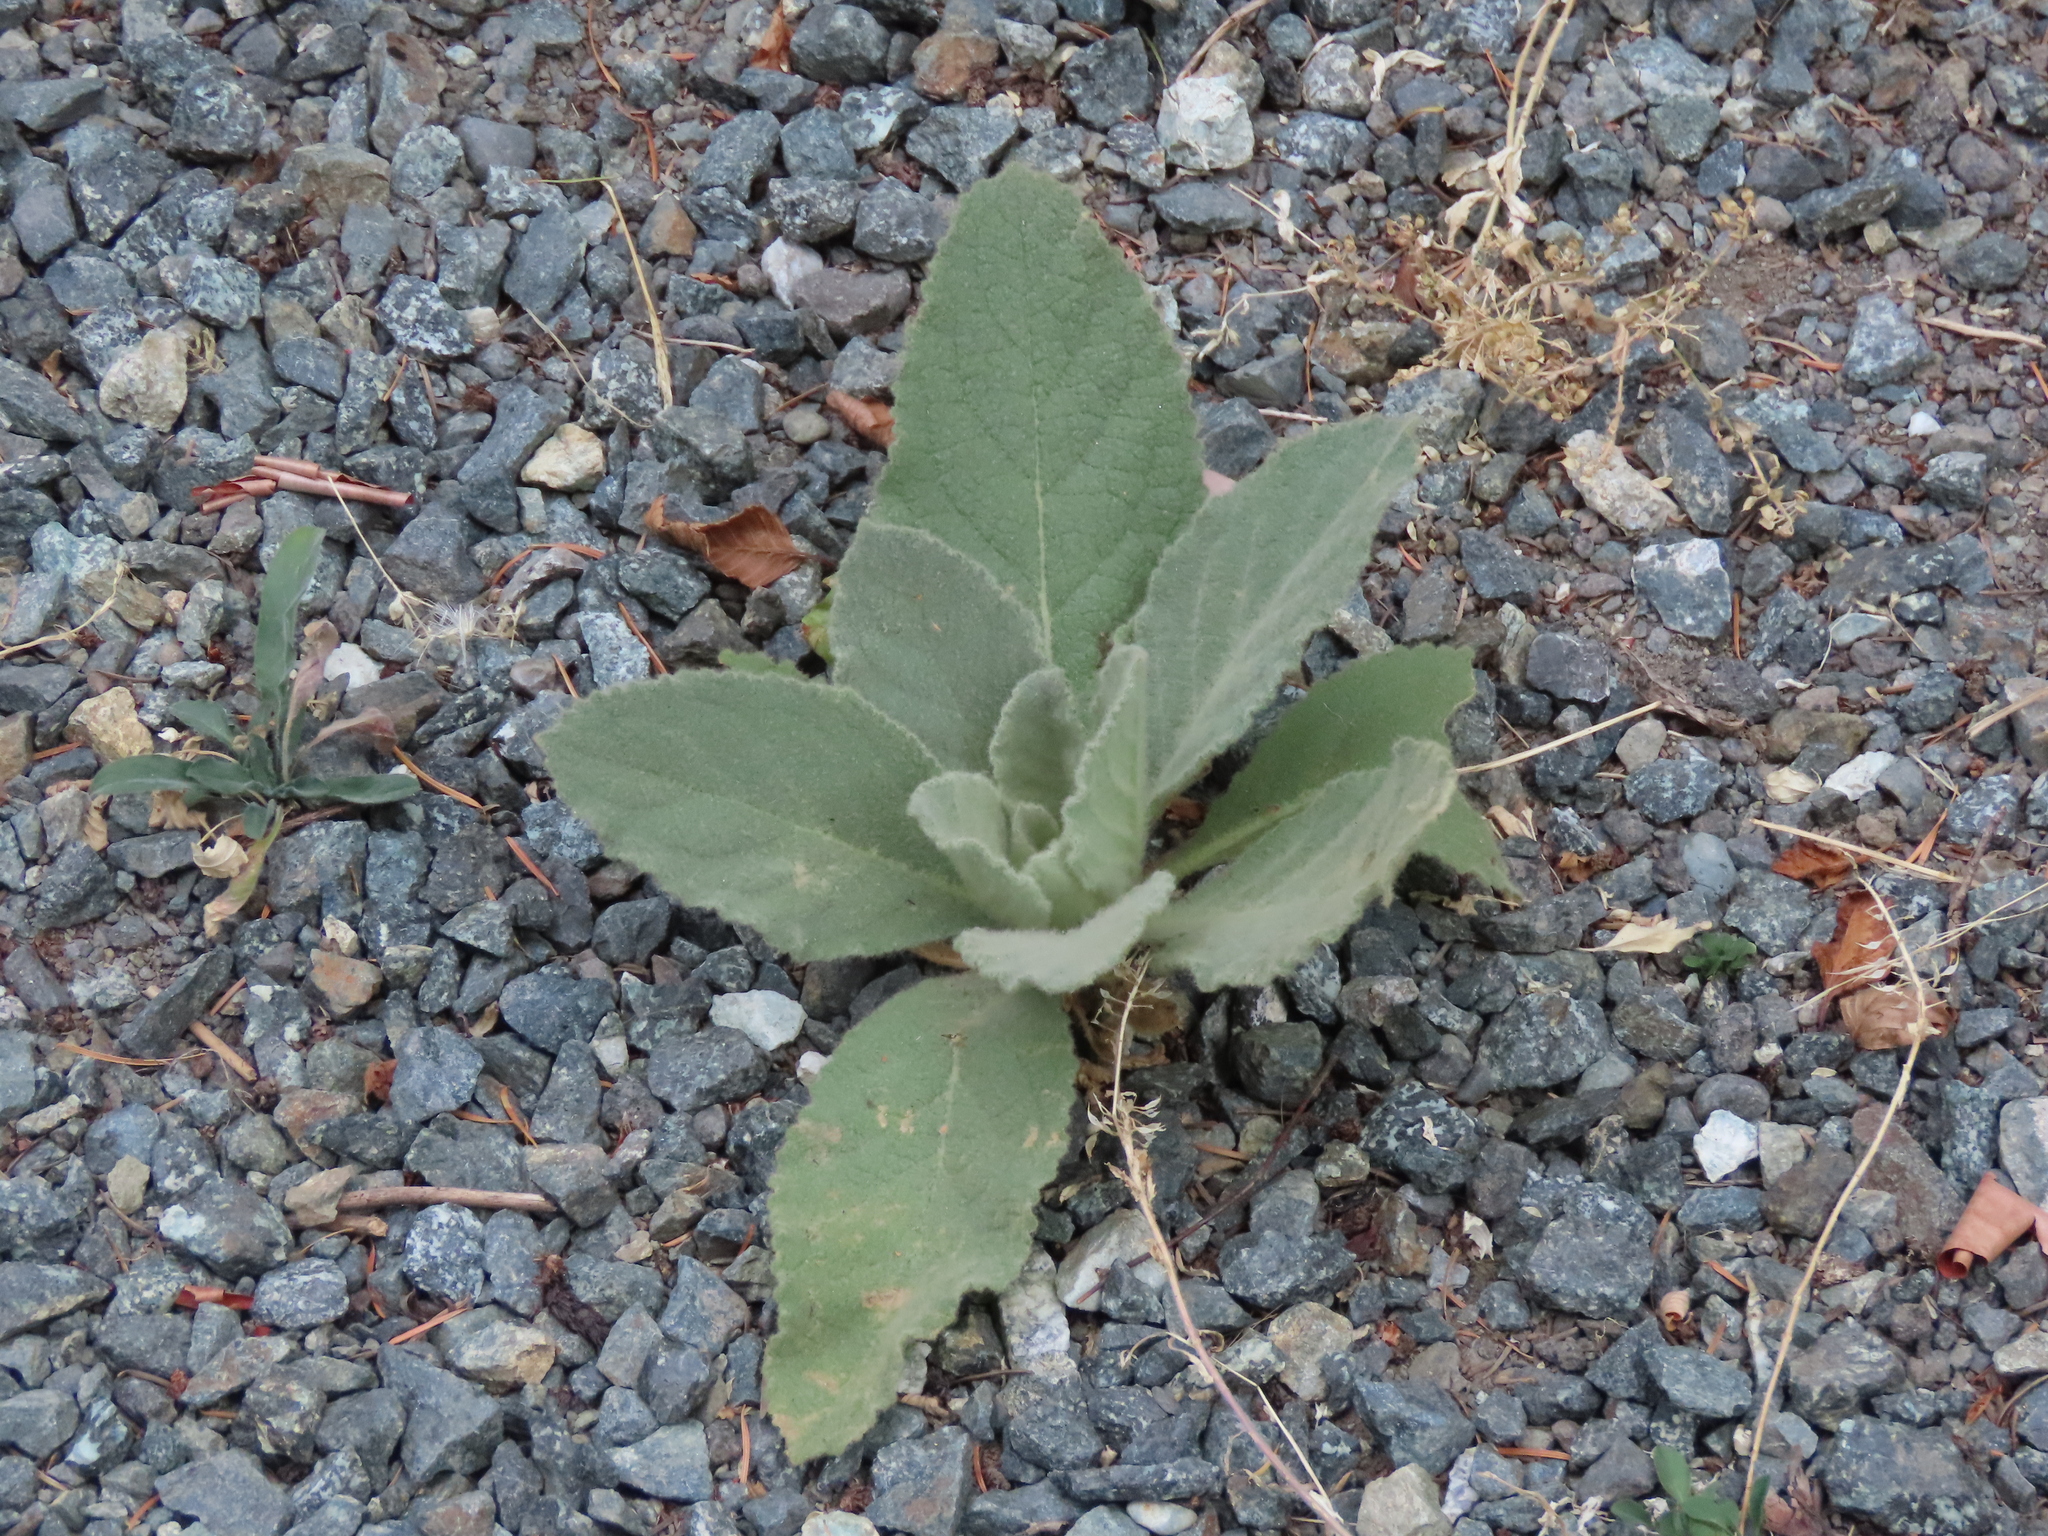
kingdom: Plantae
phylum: Tracheophyta
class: Magnoliopsida
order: Lamiales
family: Scrophulariaceae
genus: Verbascum
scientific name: Verbascum thapsus
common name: Common mullein
